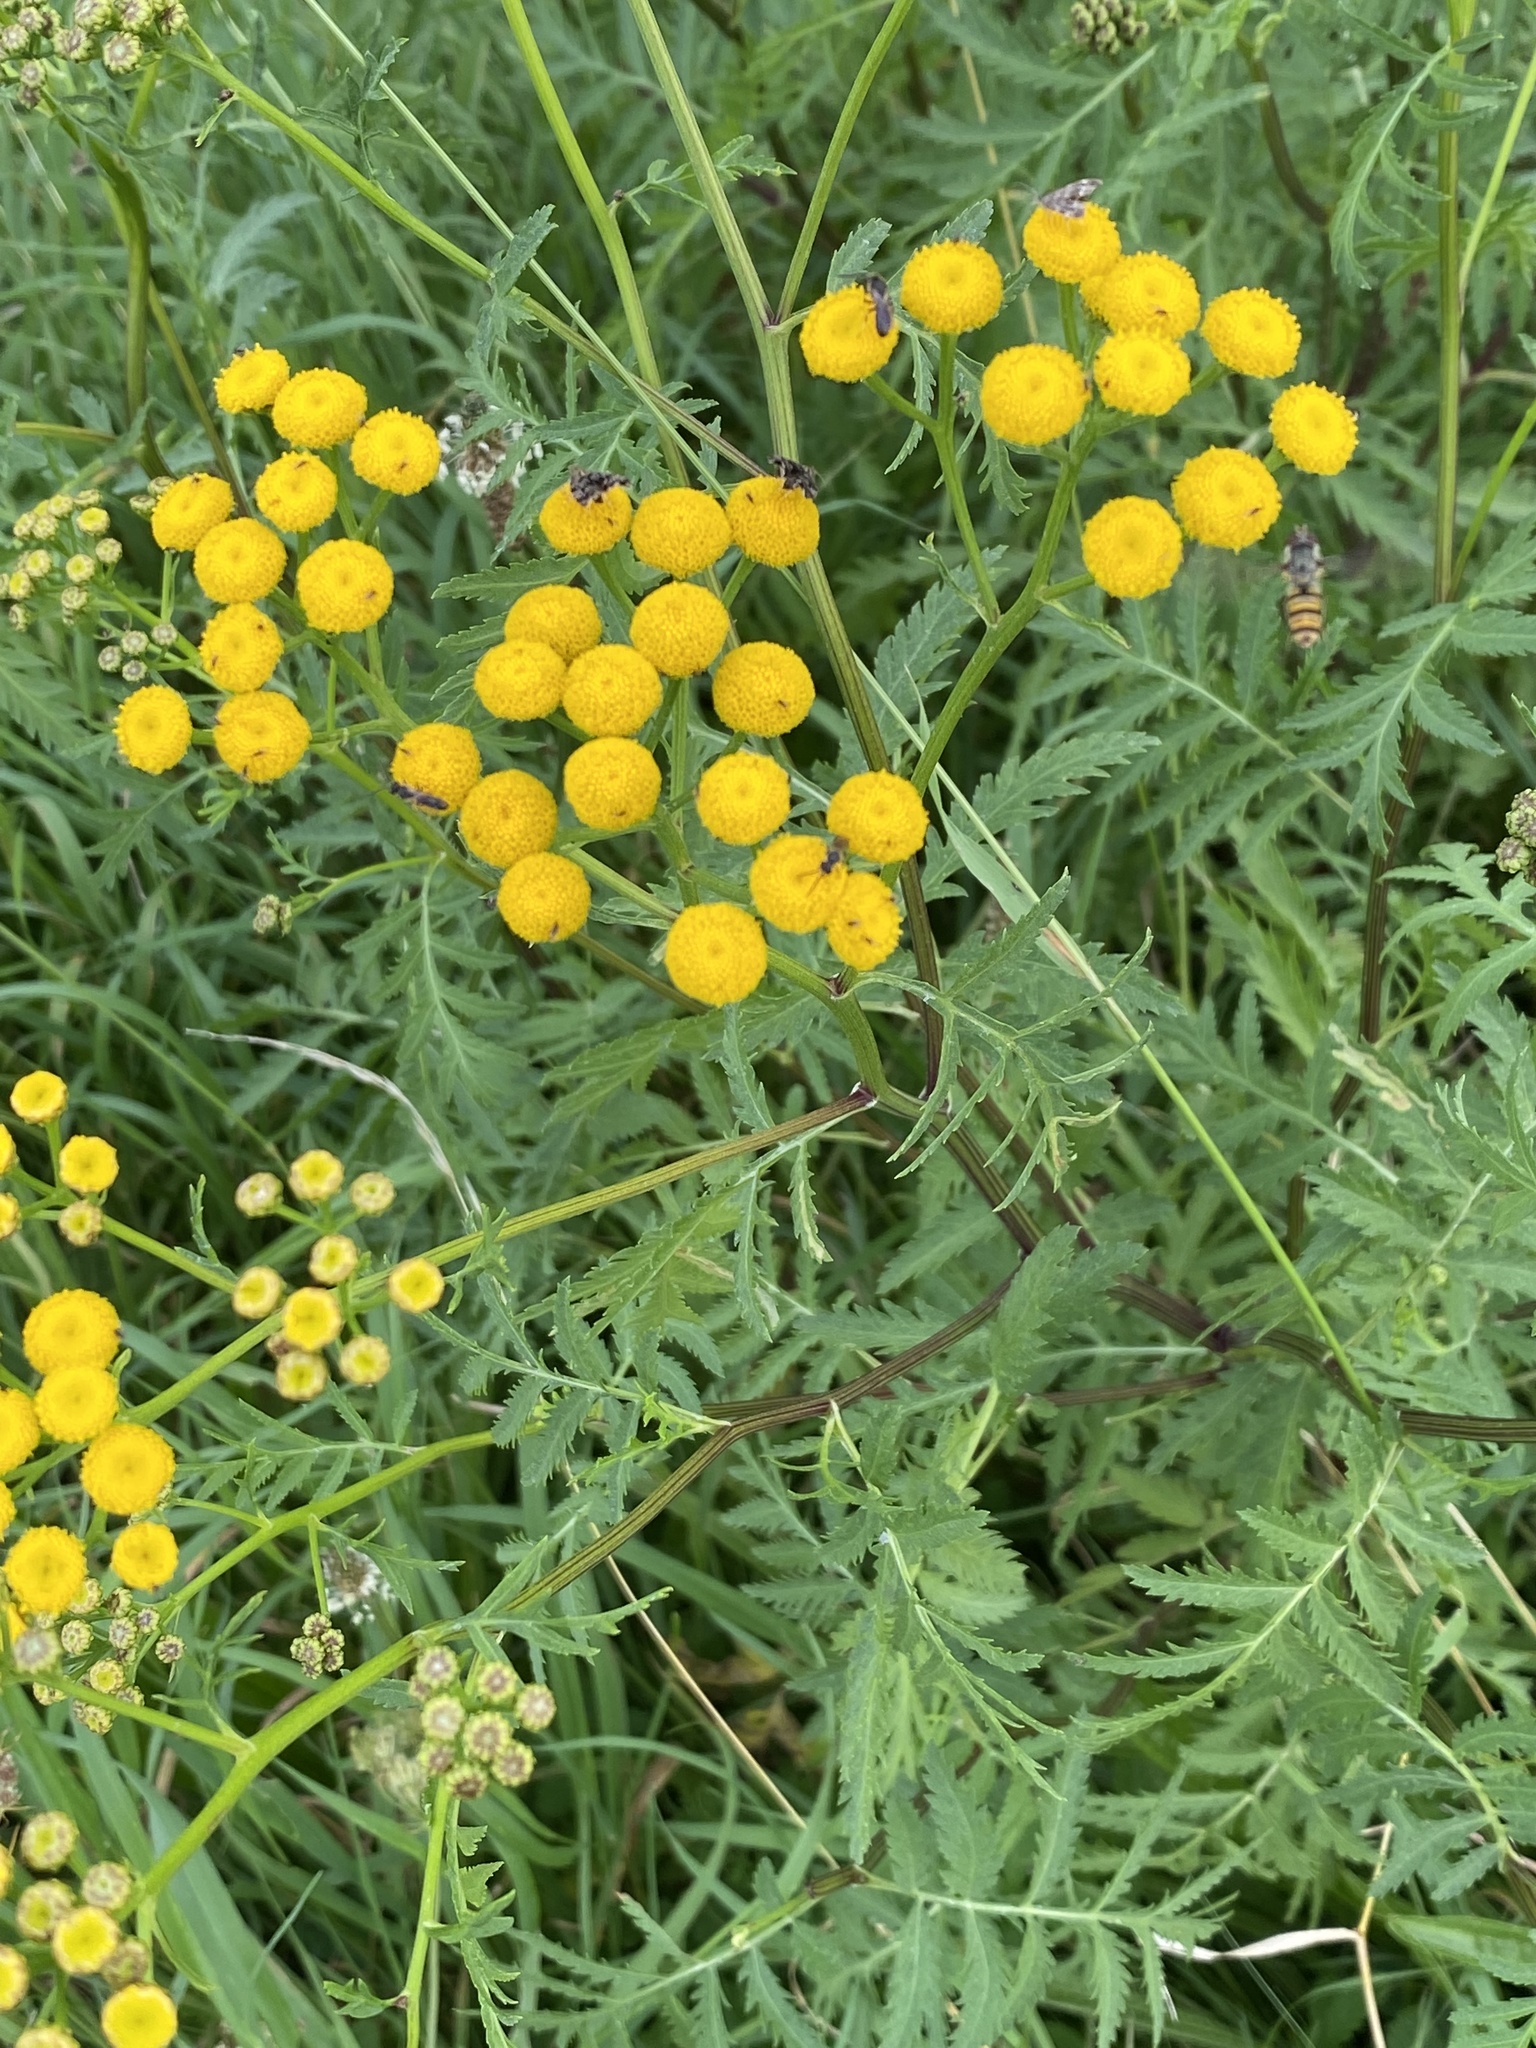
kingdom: Plantae
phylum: Tracheophyta
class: Magnoliopsida
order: Asterales
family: Asteraceae
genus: Tanacetum
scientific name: Tanacetum vulgare
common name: Common tansy
